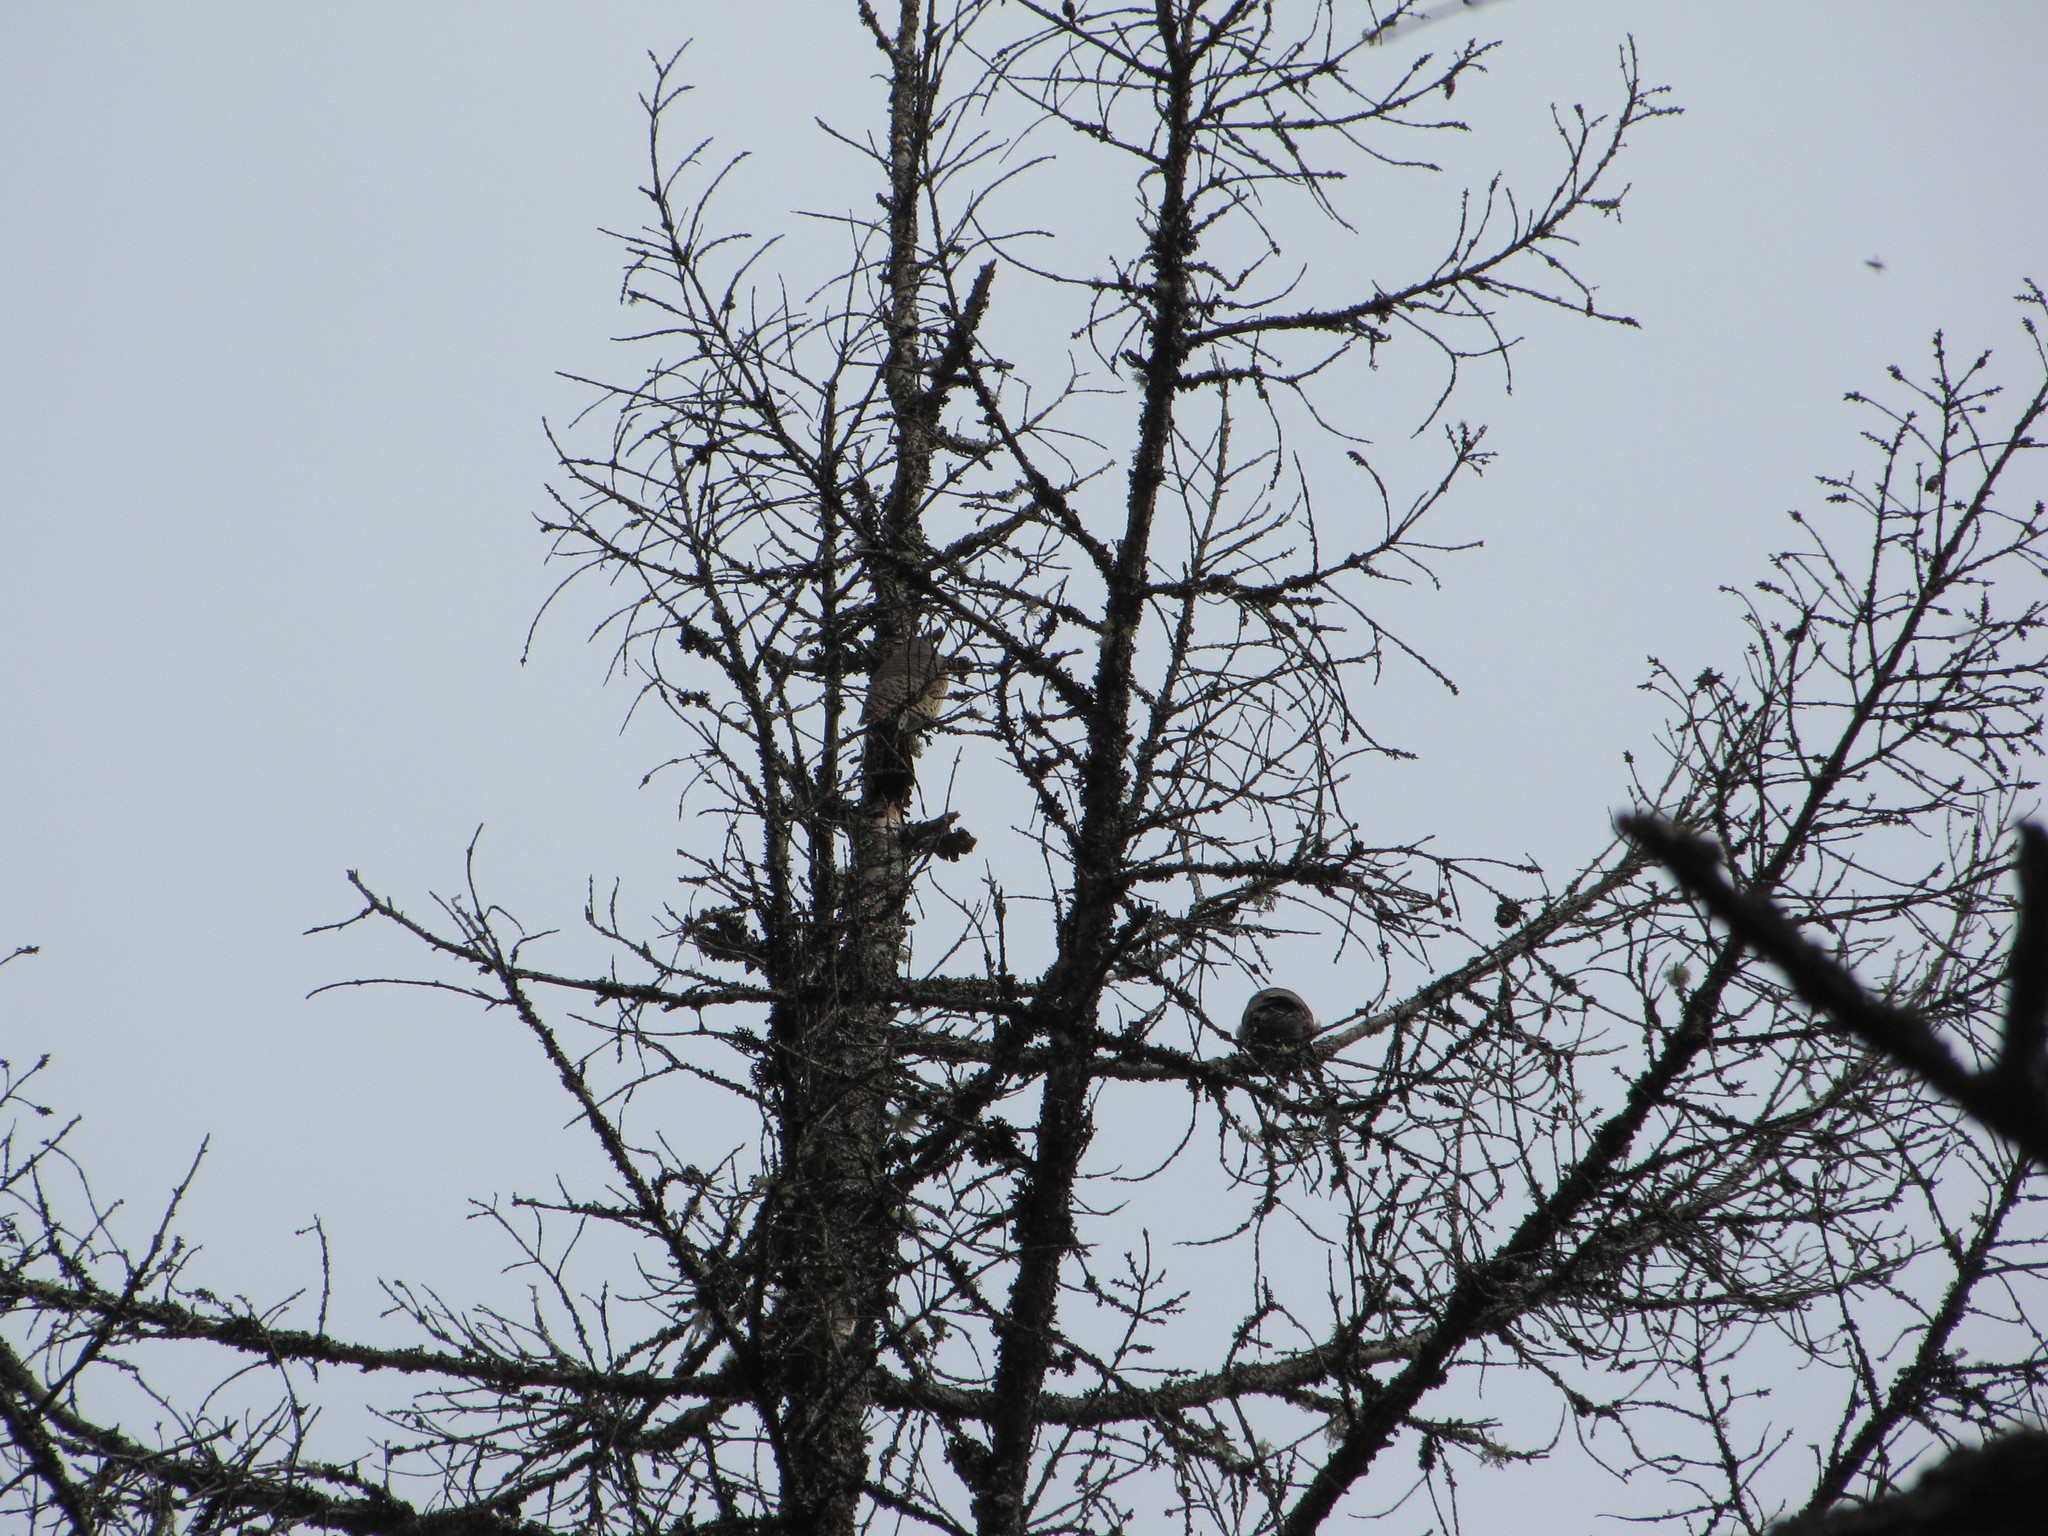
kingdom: Animalia
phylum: Chordata
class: Aves
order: Piciformes
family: Picidae
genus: Colaptes
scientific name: Colaptes auratus
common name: Northern flicker
